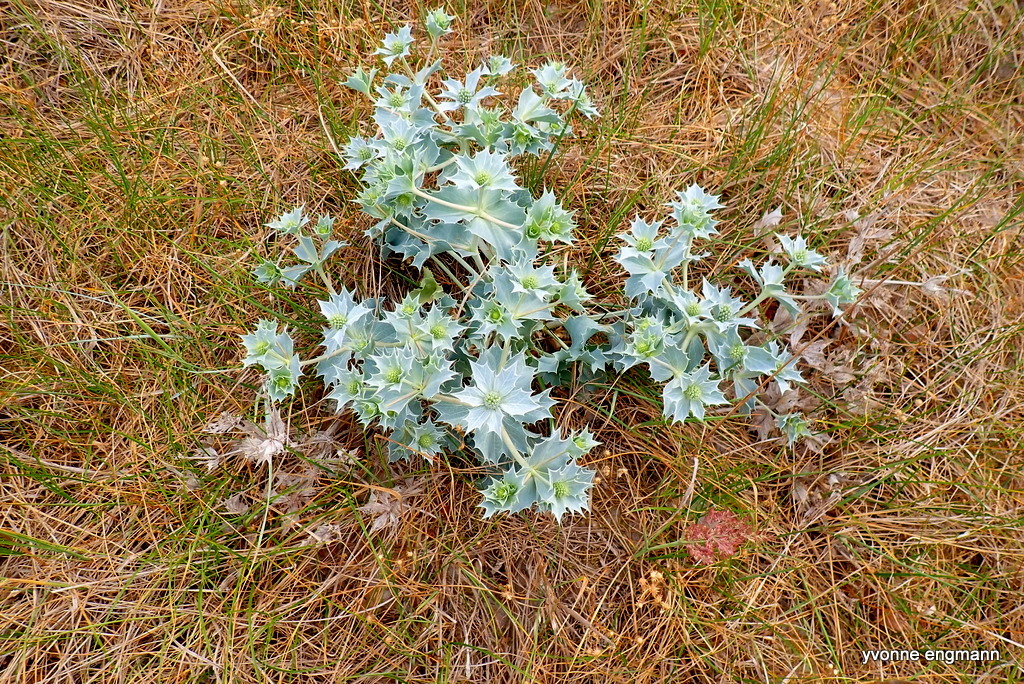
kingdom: Plantae
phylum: Tracheophyta
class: Magnoliopsida
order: Apiales
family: Apiaceae
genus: Eryngium
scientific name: Eryngium maritimum
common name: Sea-holly
